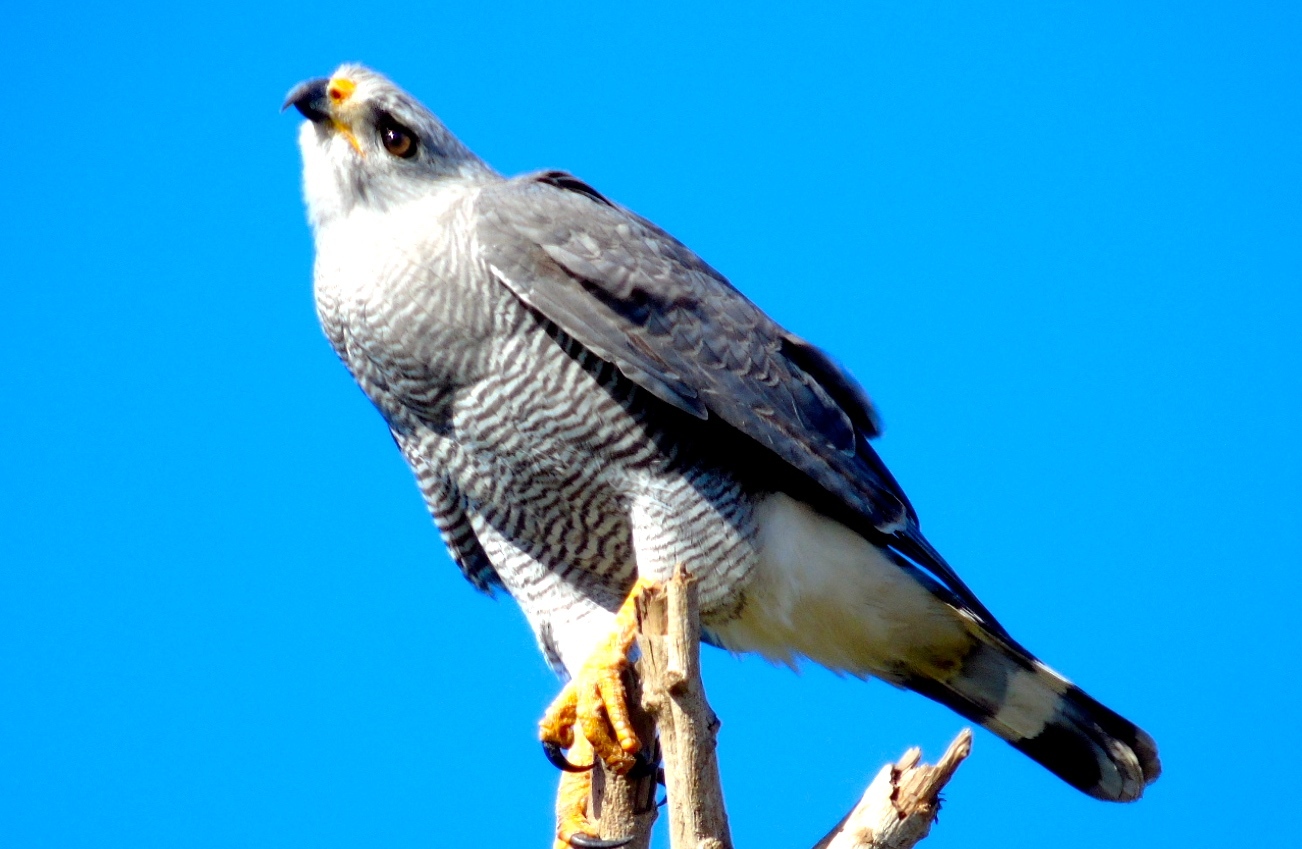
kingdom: Animalia
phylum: Chordata
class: Aves
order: Accipitriformes
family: Accipitridae
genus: Buteo
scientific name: Buteo nitidus
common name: Grey-lined hawk
